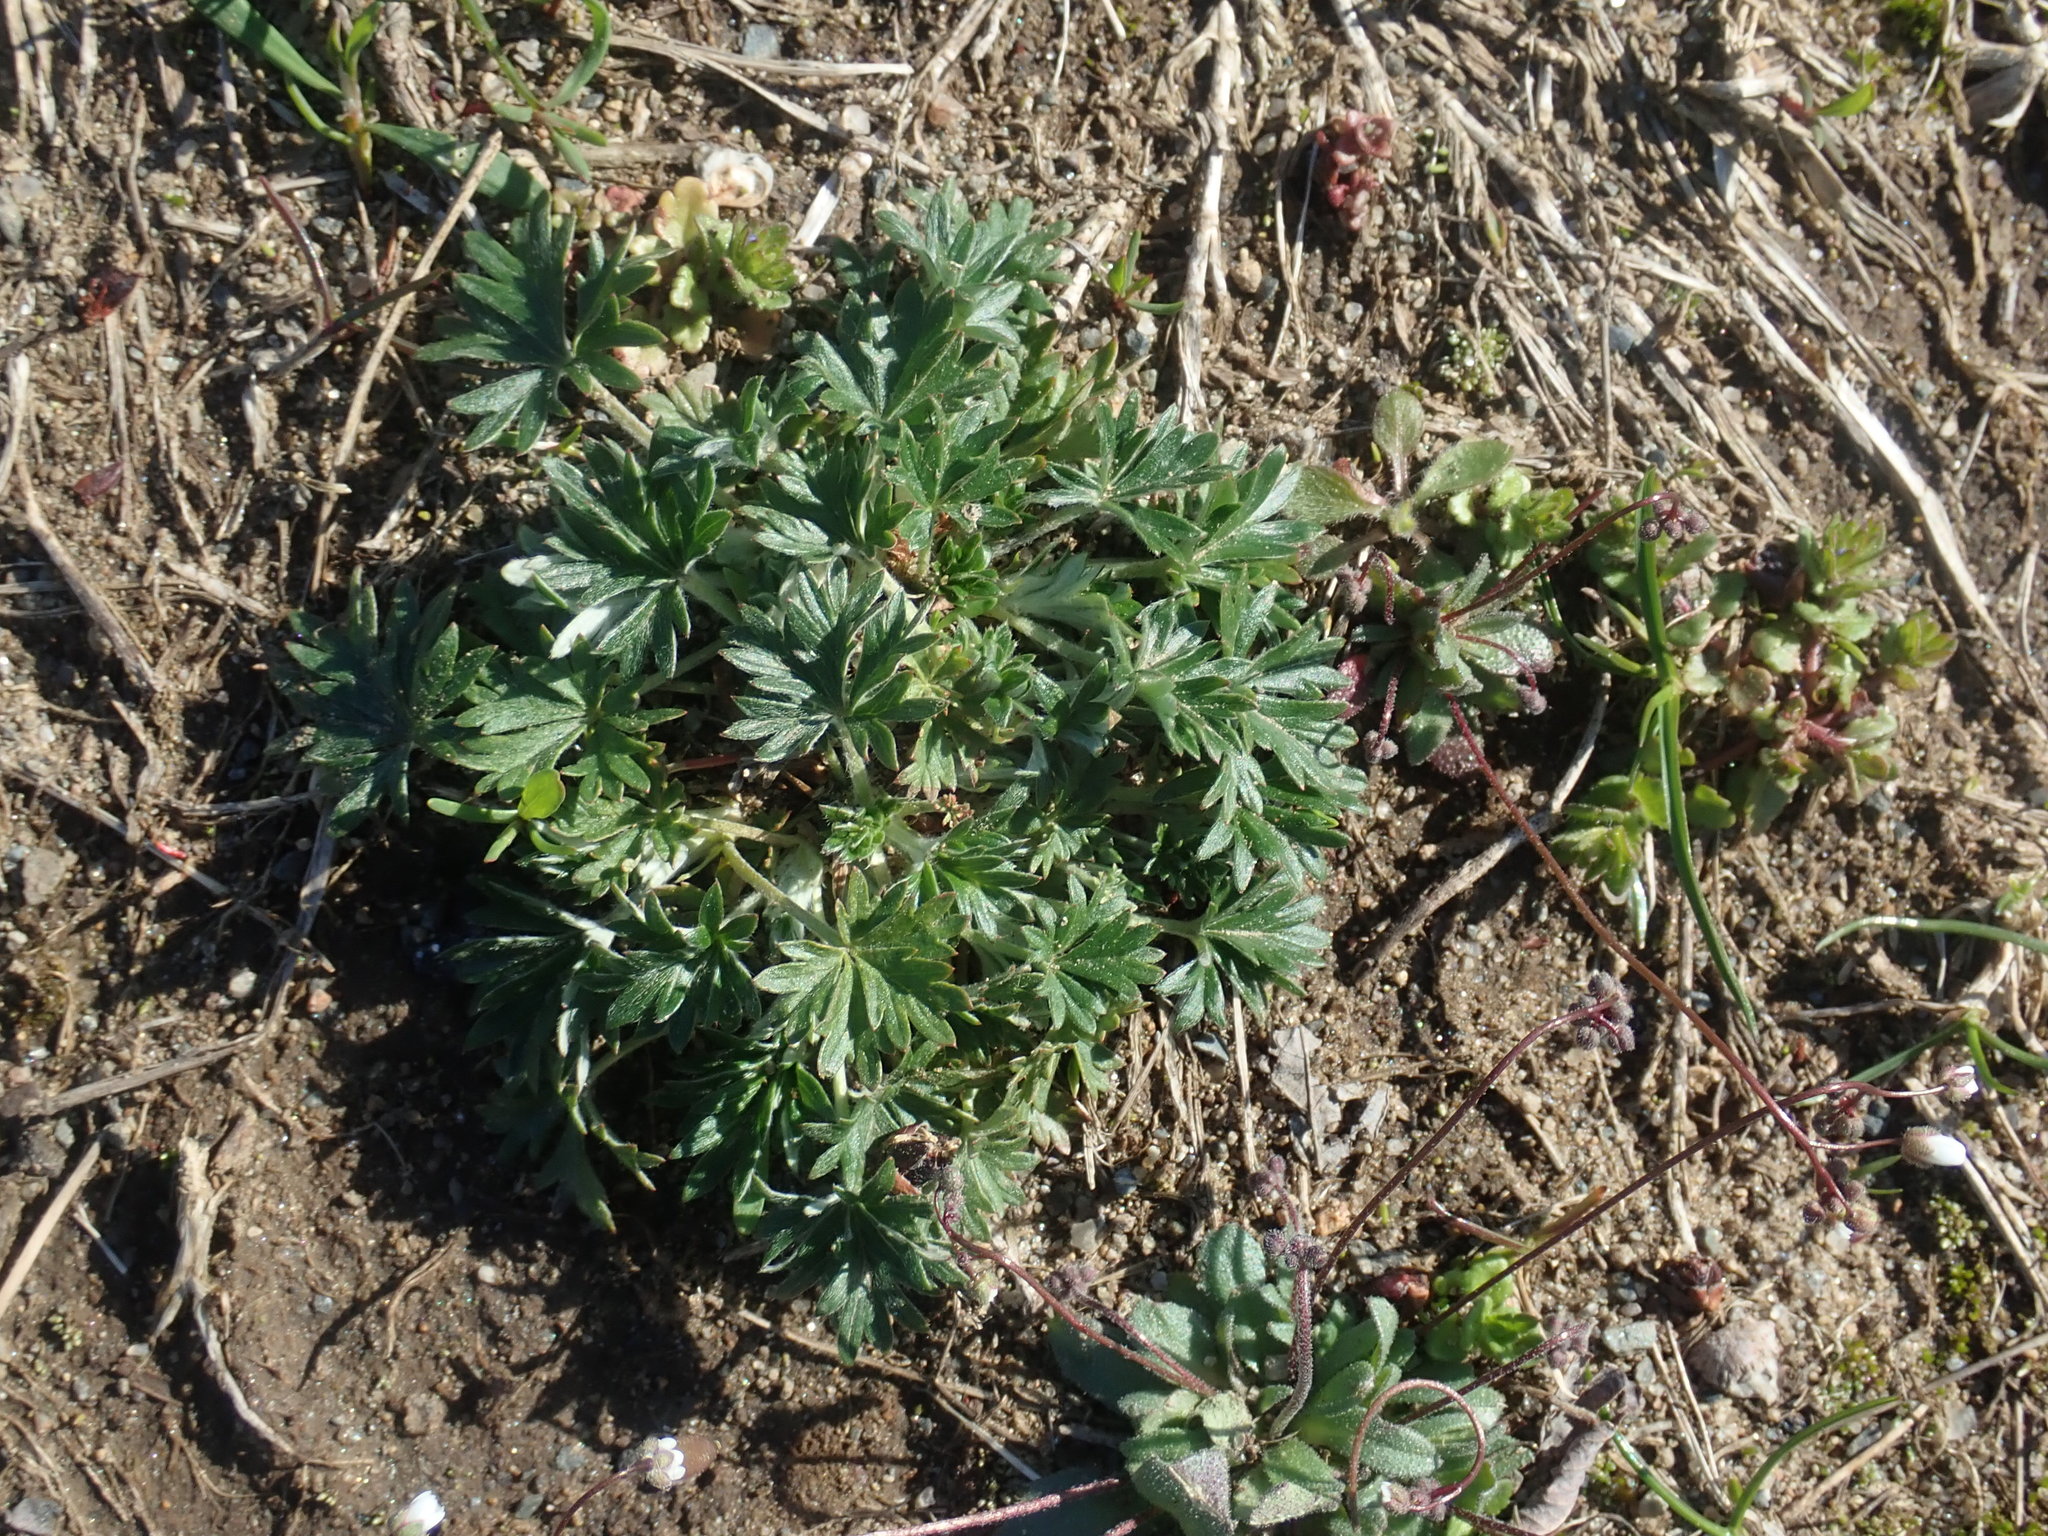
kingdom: Plantae
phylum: Tracheophyta
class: Magnoliopsida
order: Rosales
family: Rosaceae
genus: Potentilla
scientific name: Potentilla argentea
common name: Hoary cinquefoil
